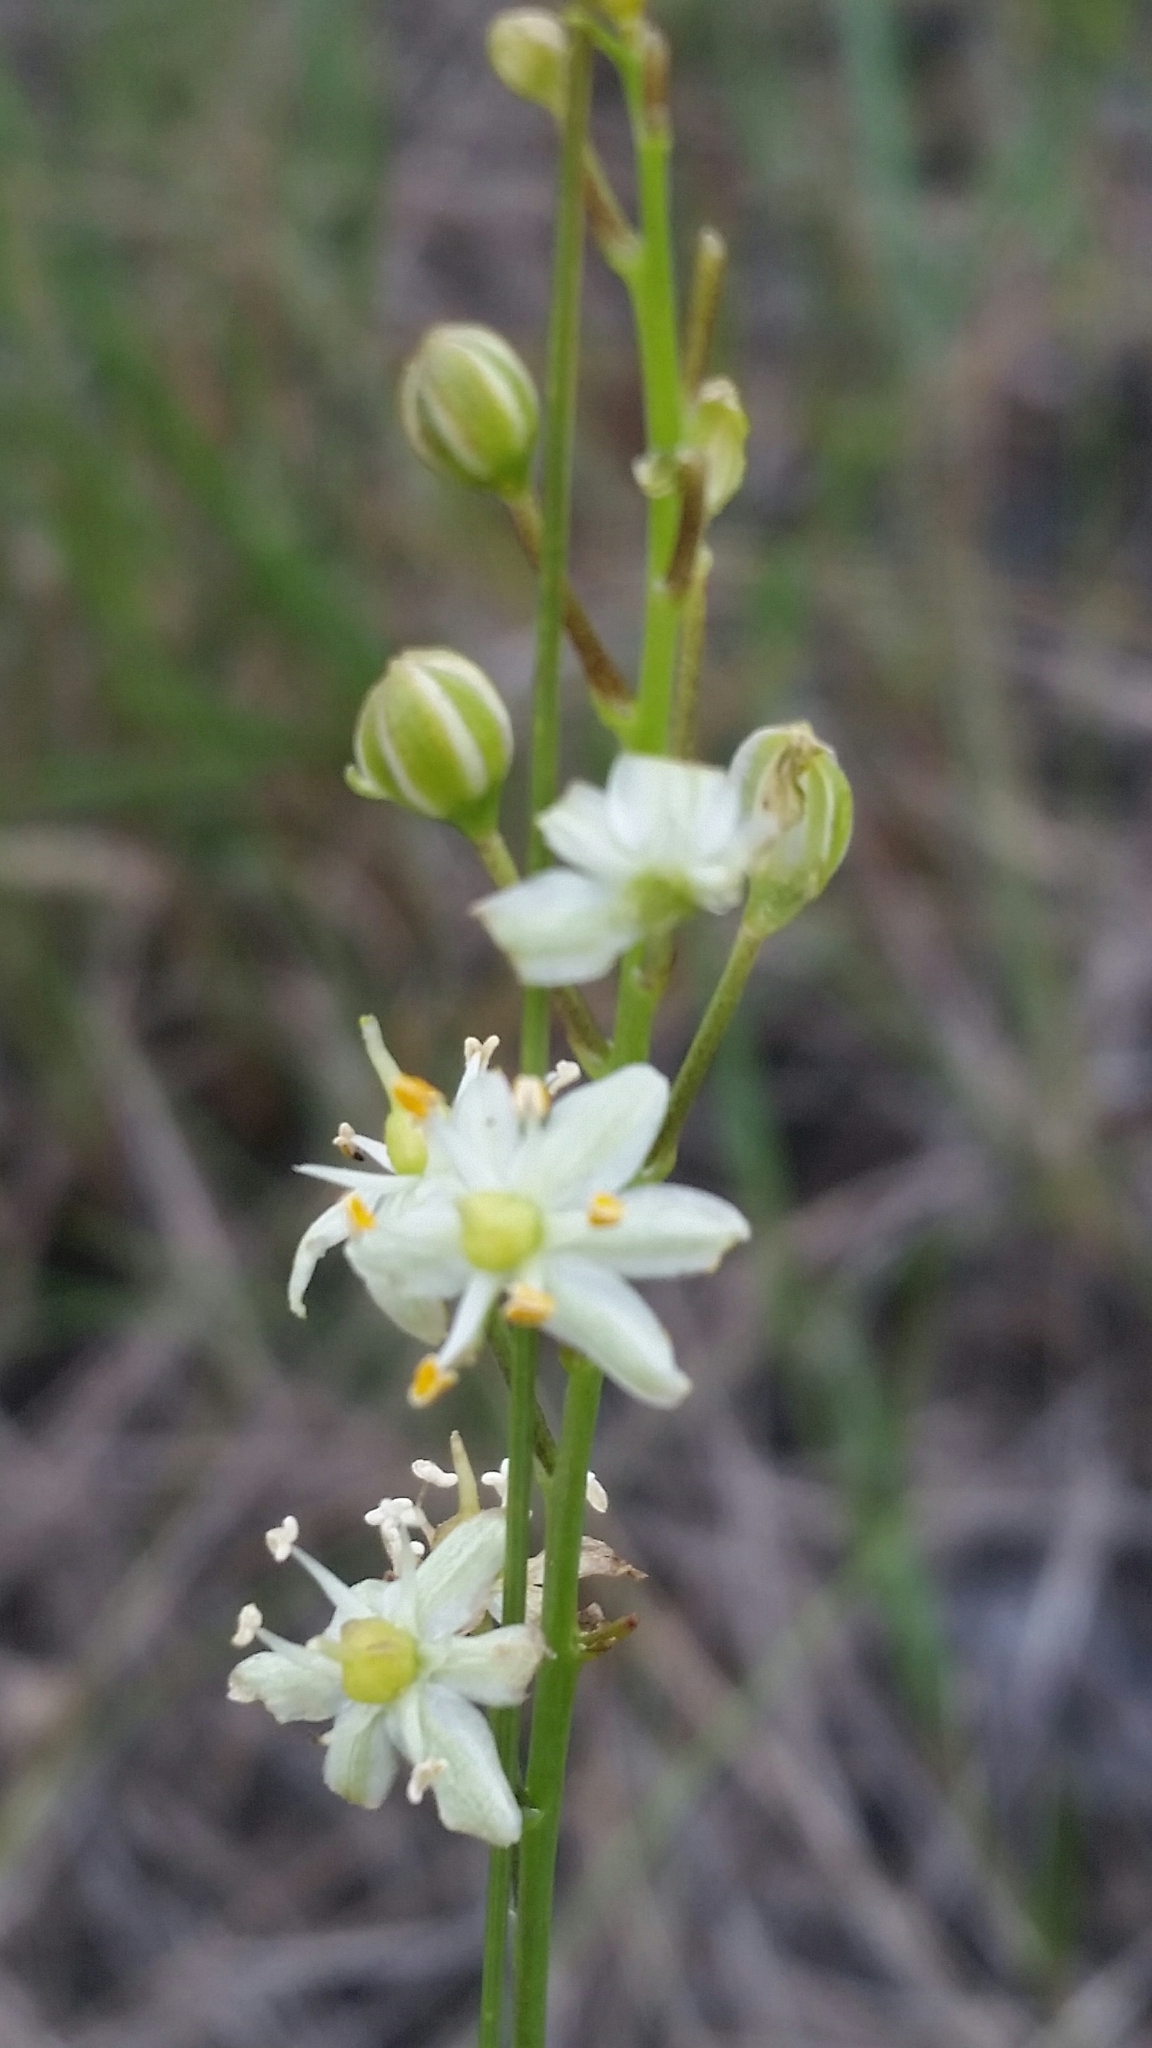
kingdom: Plantae
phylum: Tracheophyta
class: Liliopsida
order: Asparagales
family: Asparagaceae
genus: Schoenolirion
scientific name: Schoenolirion albiflorum
